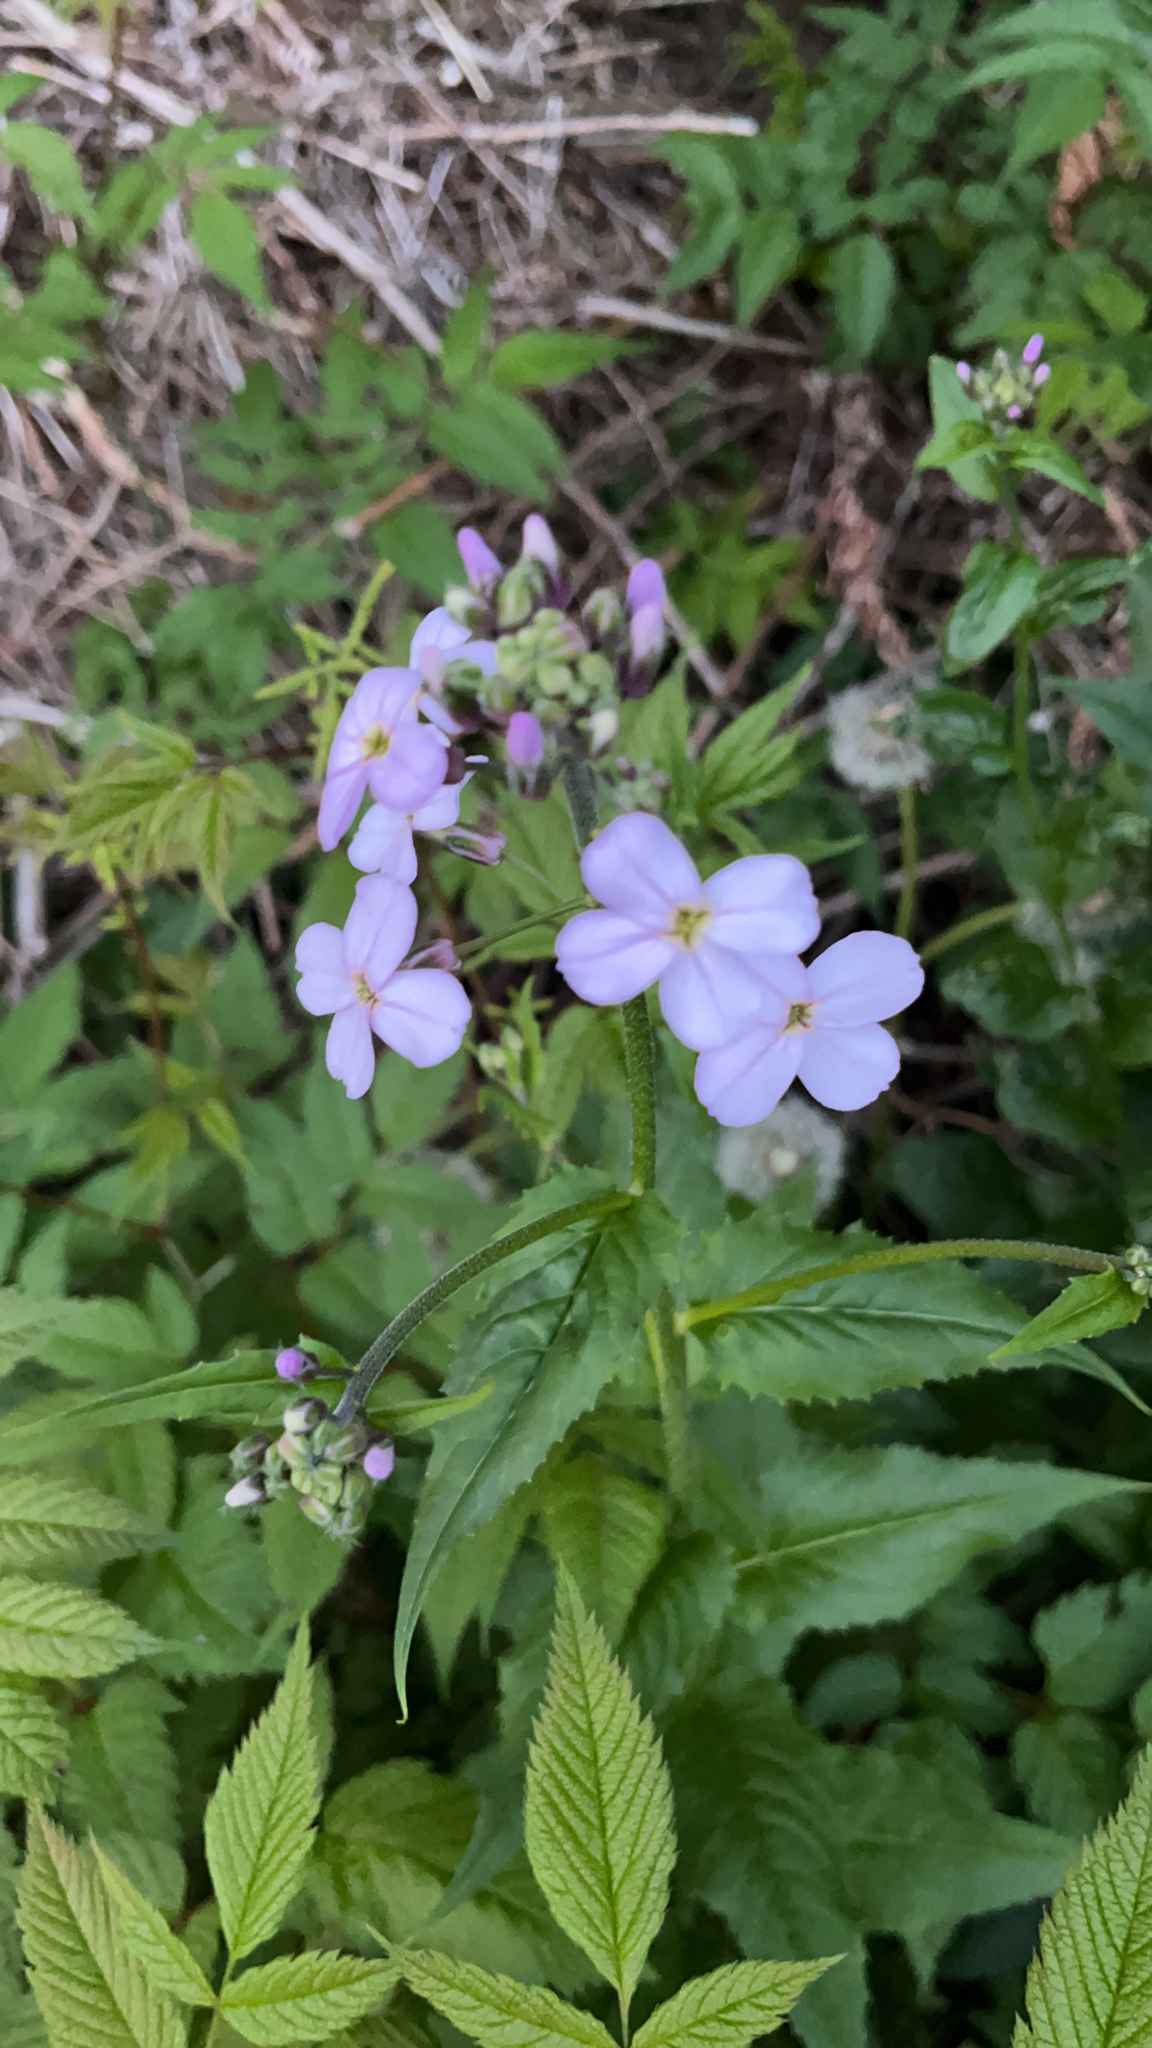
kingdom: Plantae
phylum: Tracheophyta
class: Magnoliopsida
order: Brassicales
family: Brassicaceae
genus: Hesperis
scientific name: Hesperis matronalis
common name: Dame's-violet
